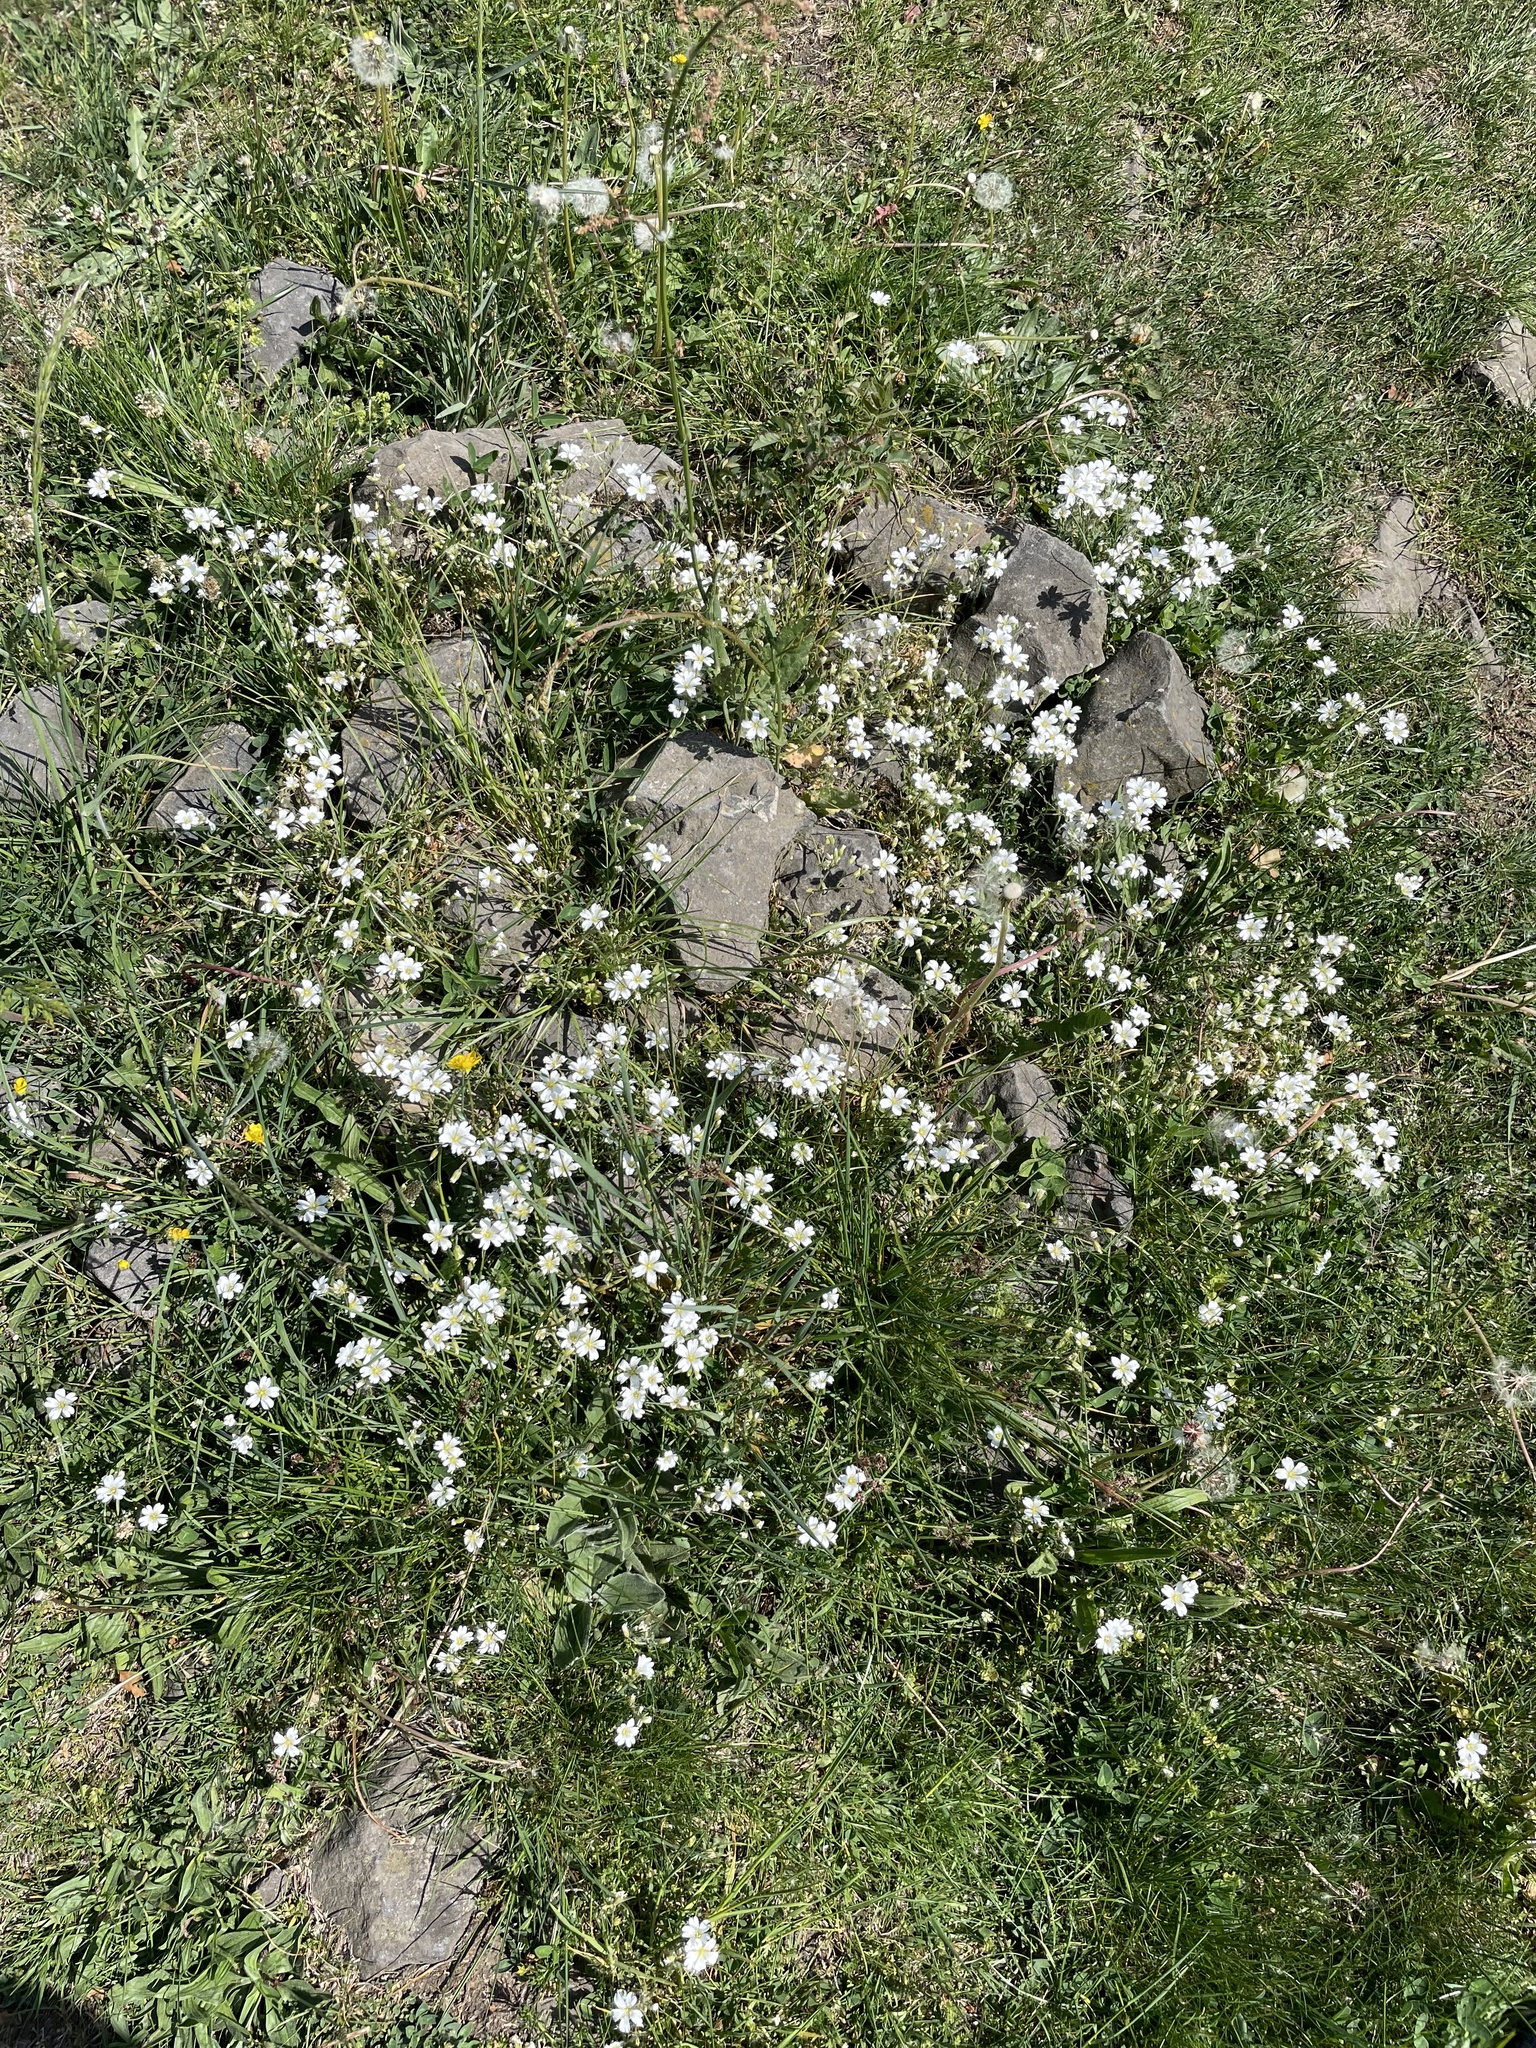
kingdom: Plantae
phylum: Tracheophyta
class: Magnoliopsida
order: Caryophyllales
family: Caryophyllaceae
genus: Cerastium
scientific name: Cerastium arvense
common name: Field mouse-ear
